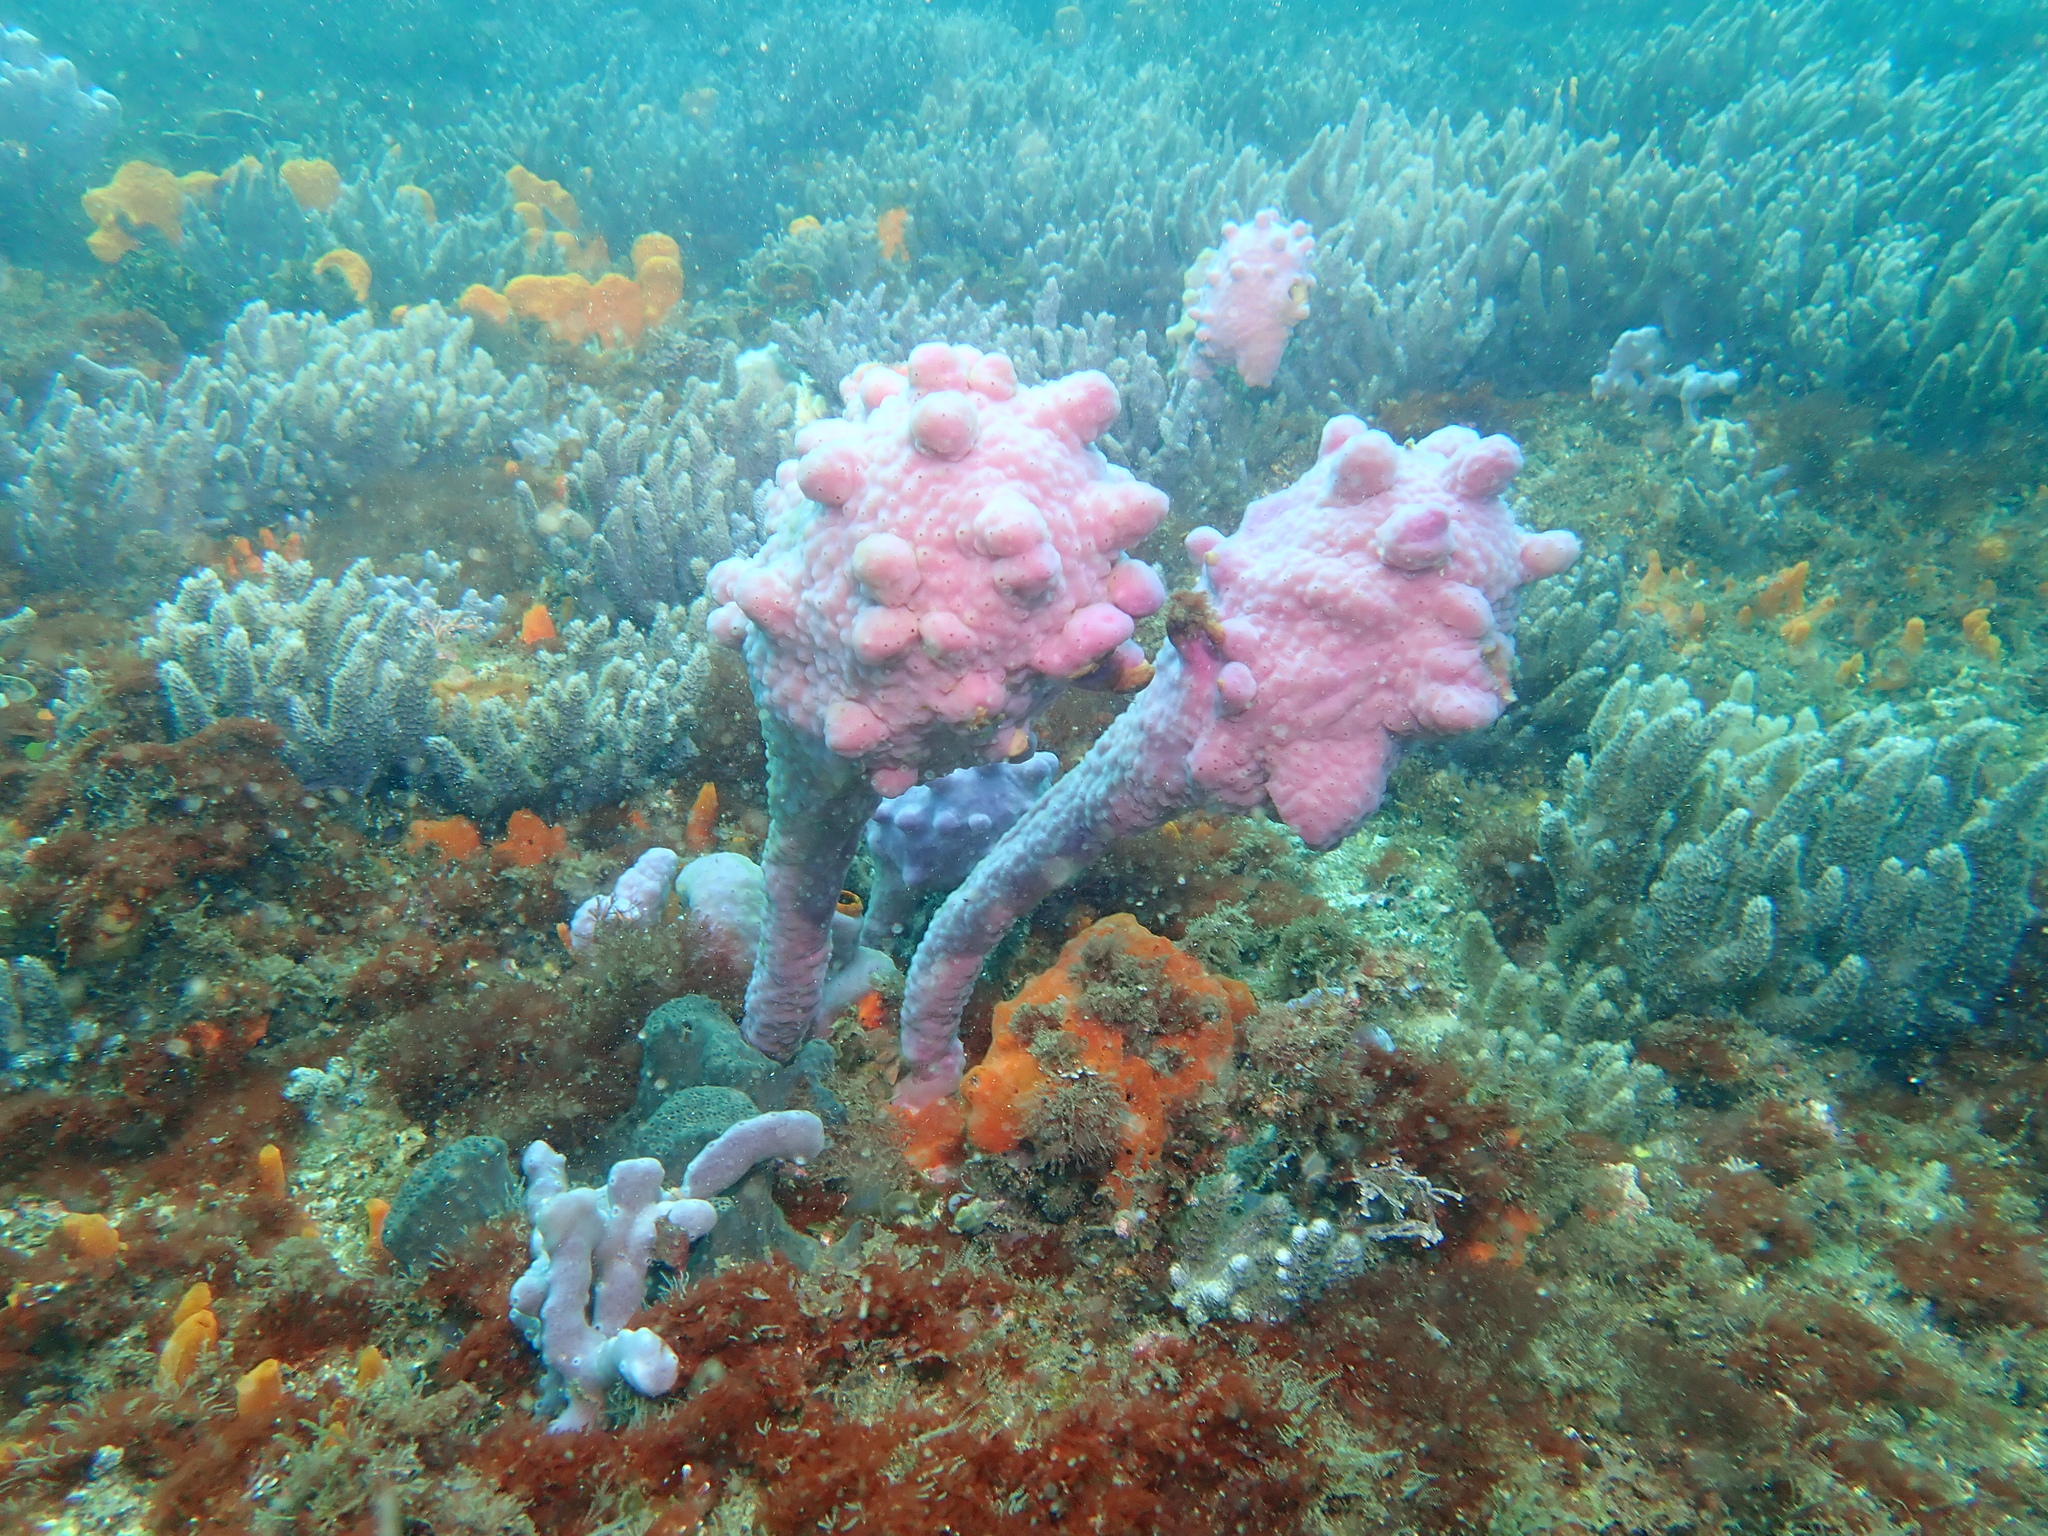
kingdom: Animalia
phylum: Porifera
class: Demospongiae
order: Chondrillida
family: Halisarcidae
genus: Halisarca
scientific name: Halisarca australiensis
